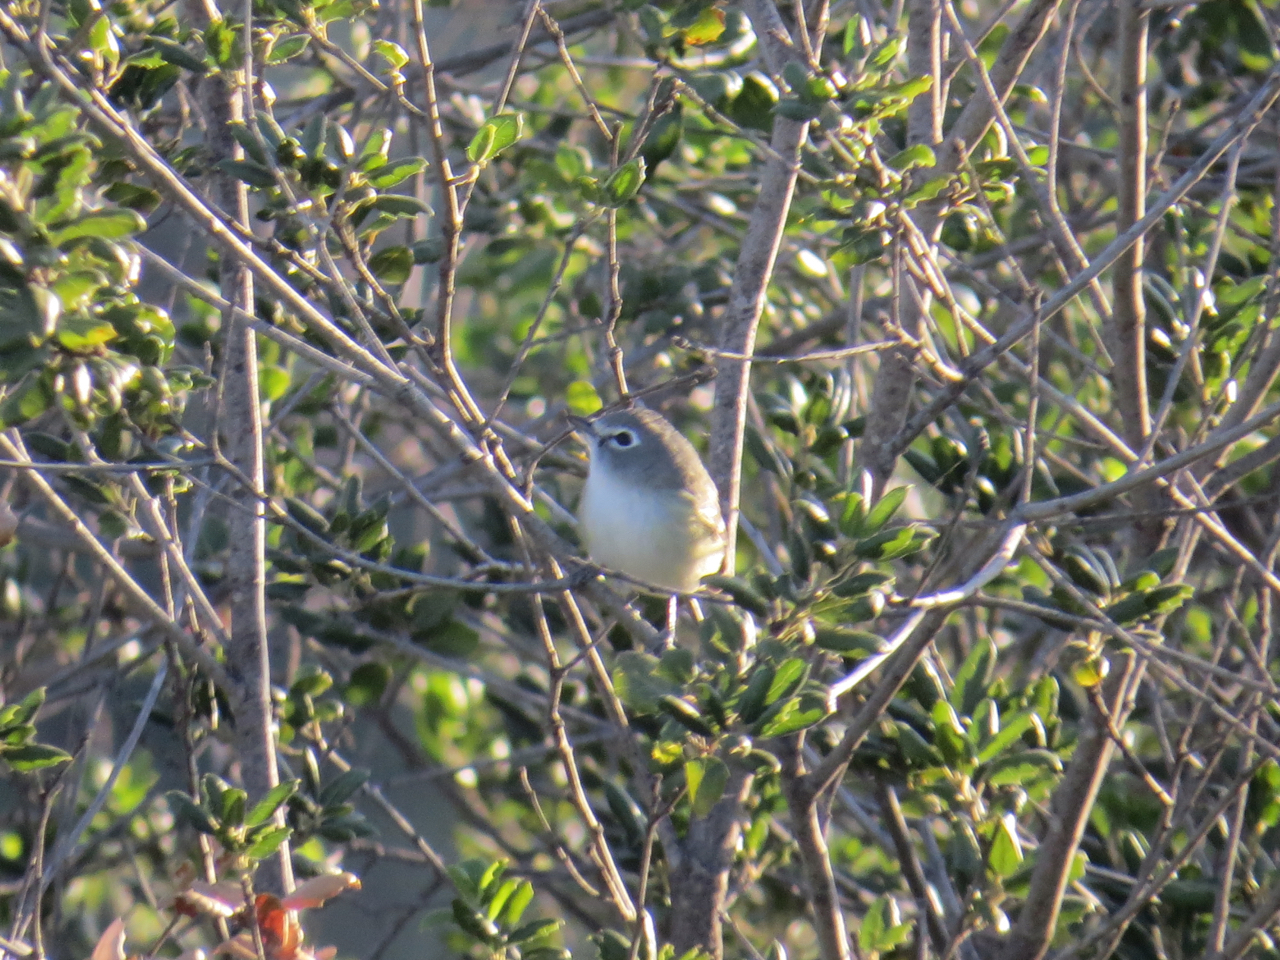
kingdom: Animalia
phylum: Chordata
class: Aves
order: Passeriformes
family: Vireonidae
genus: Vireo
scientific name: Vireo cassinii
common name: Cassin's vireo
